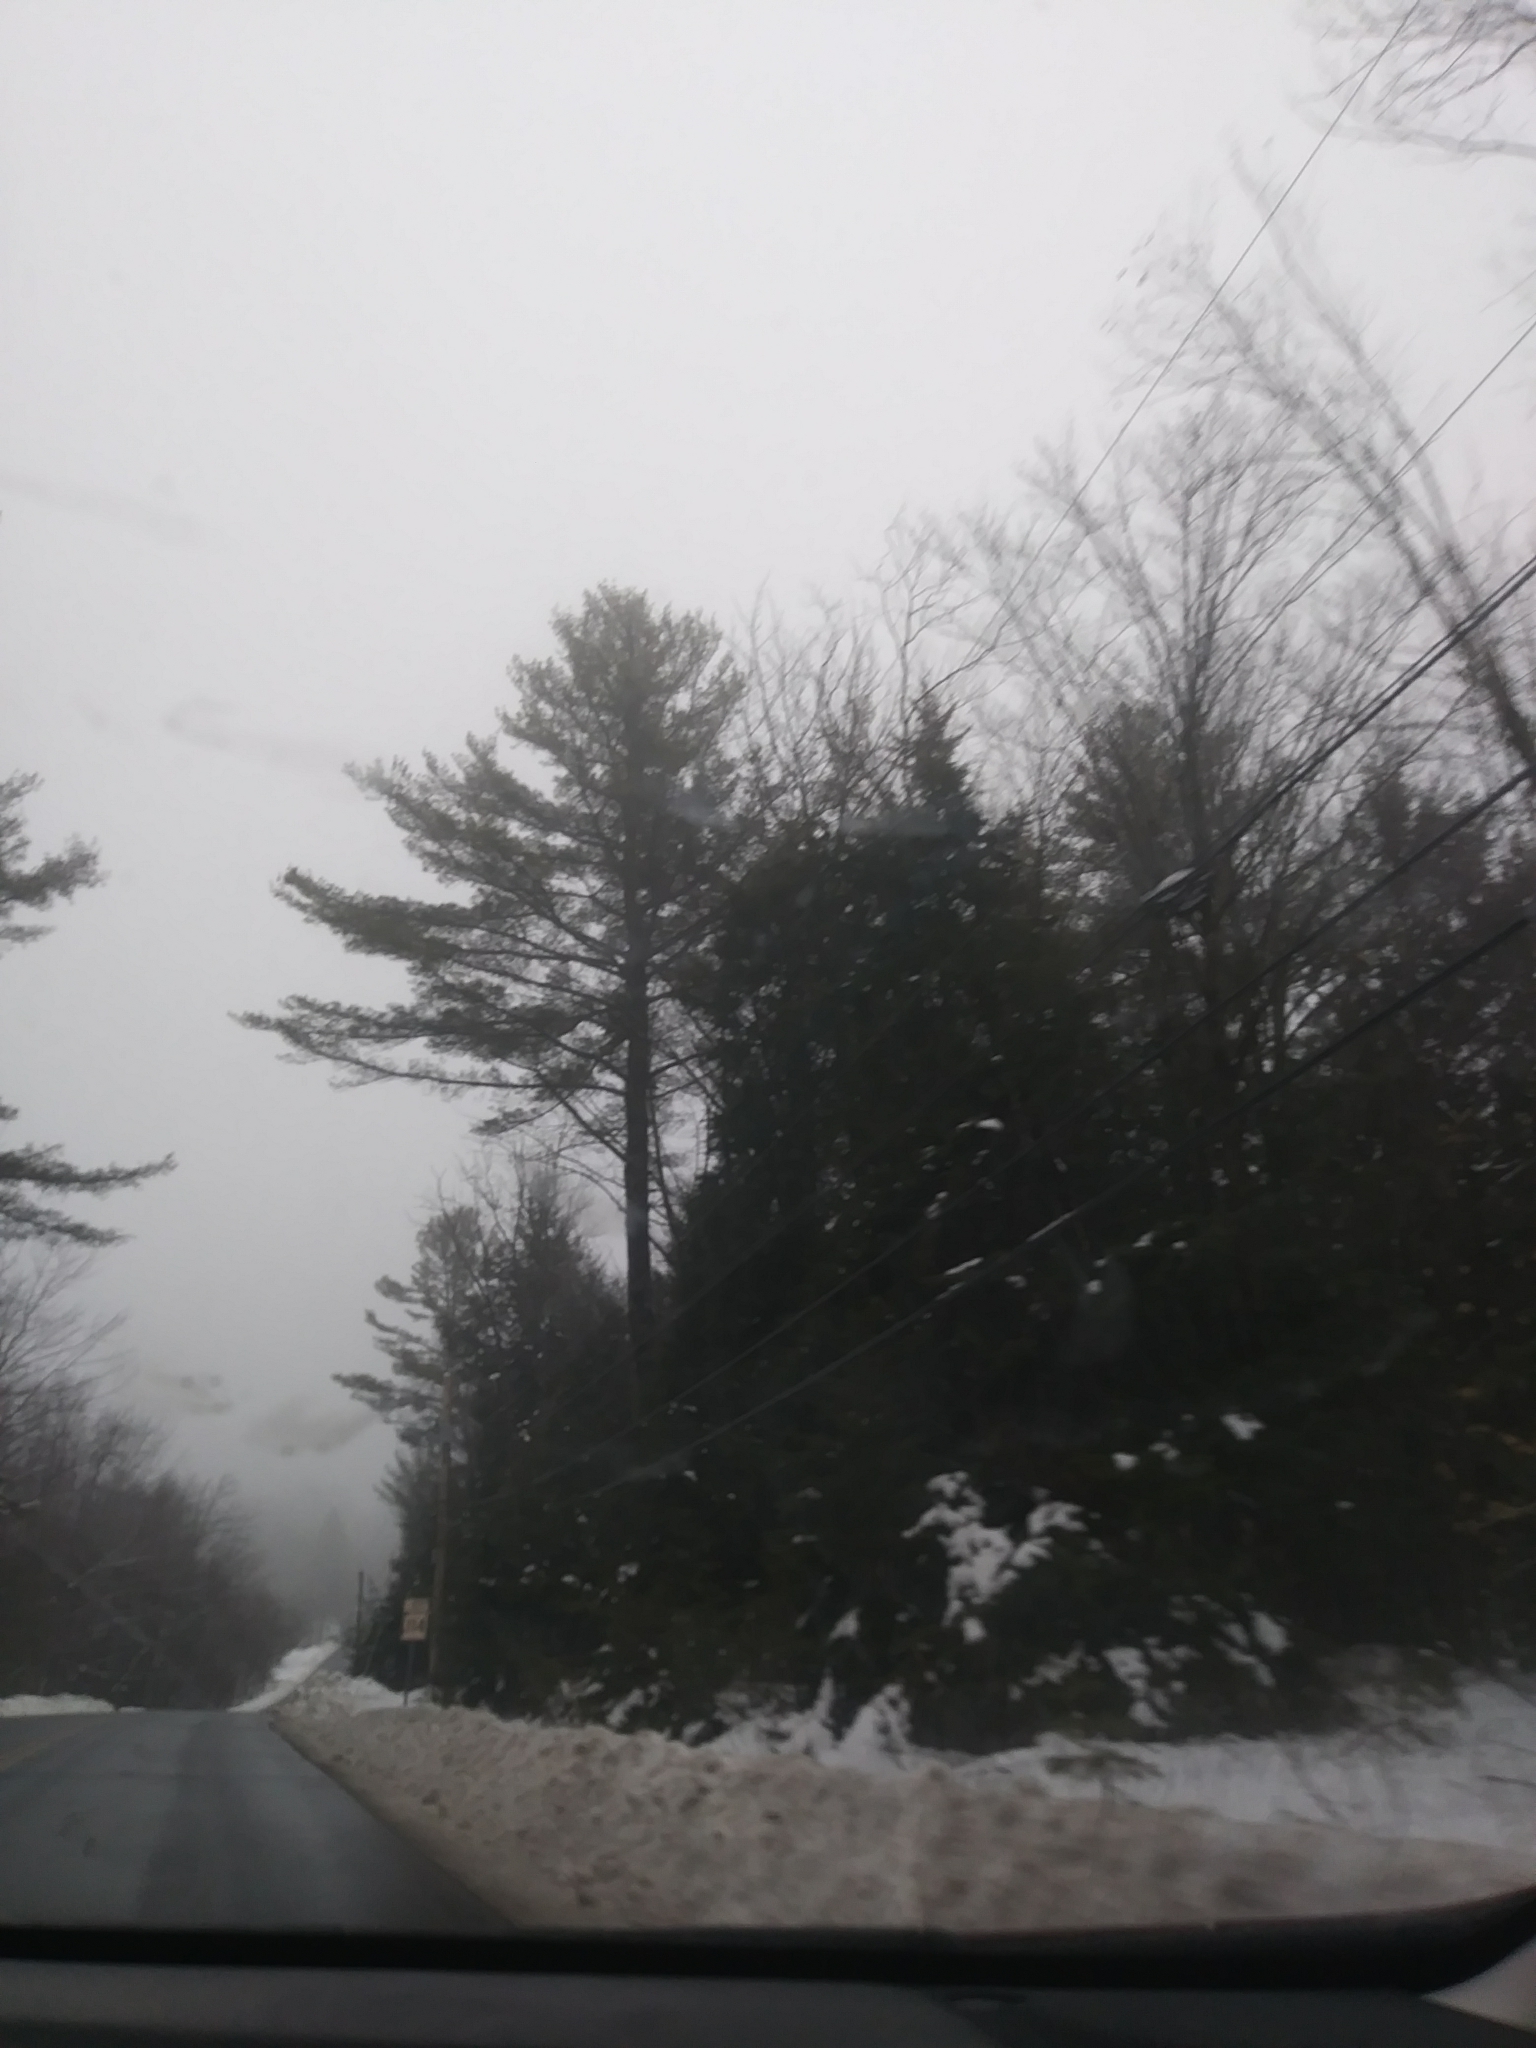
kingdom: Plantae
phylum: Tracheophyta
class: Pinopsida
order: Pinales
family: Pinaceae
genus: Pinus
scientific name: Pinus strobus
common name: Weymouth pine
